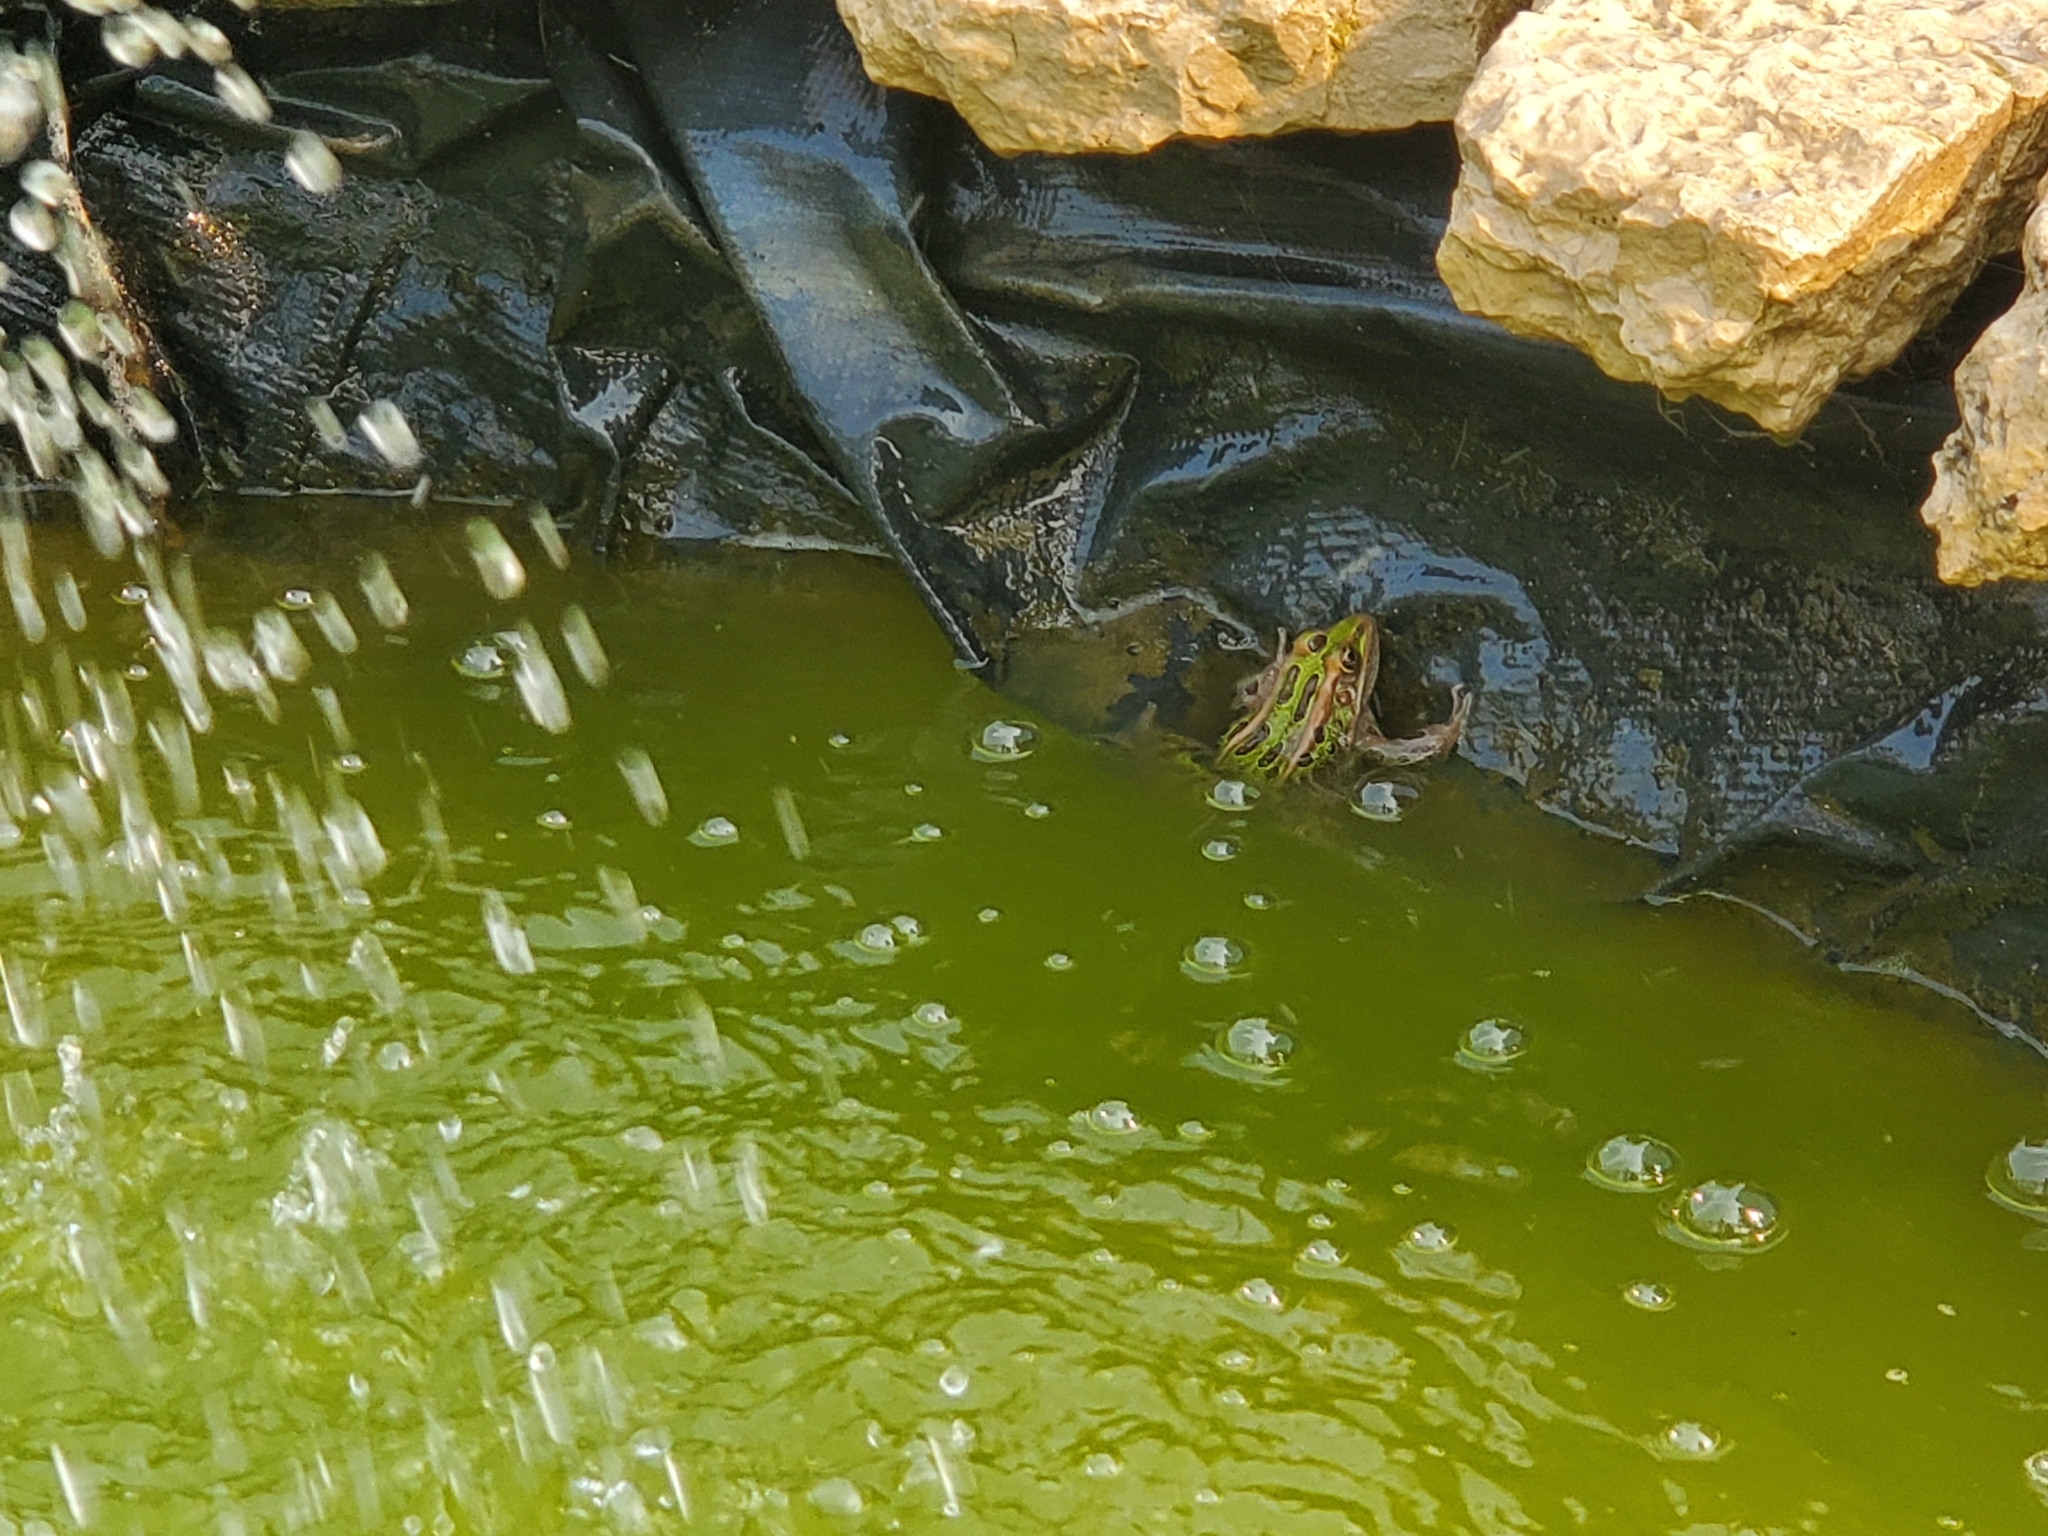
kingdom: Animalia
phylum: Chordata
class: Amphibia
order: Anura
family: Ranidae
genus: Lithobates
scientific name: Lithobates pipiens
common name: Northern leopard frog
